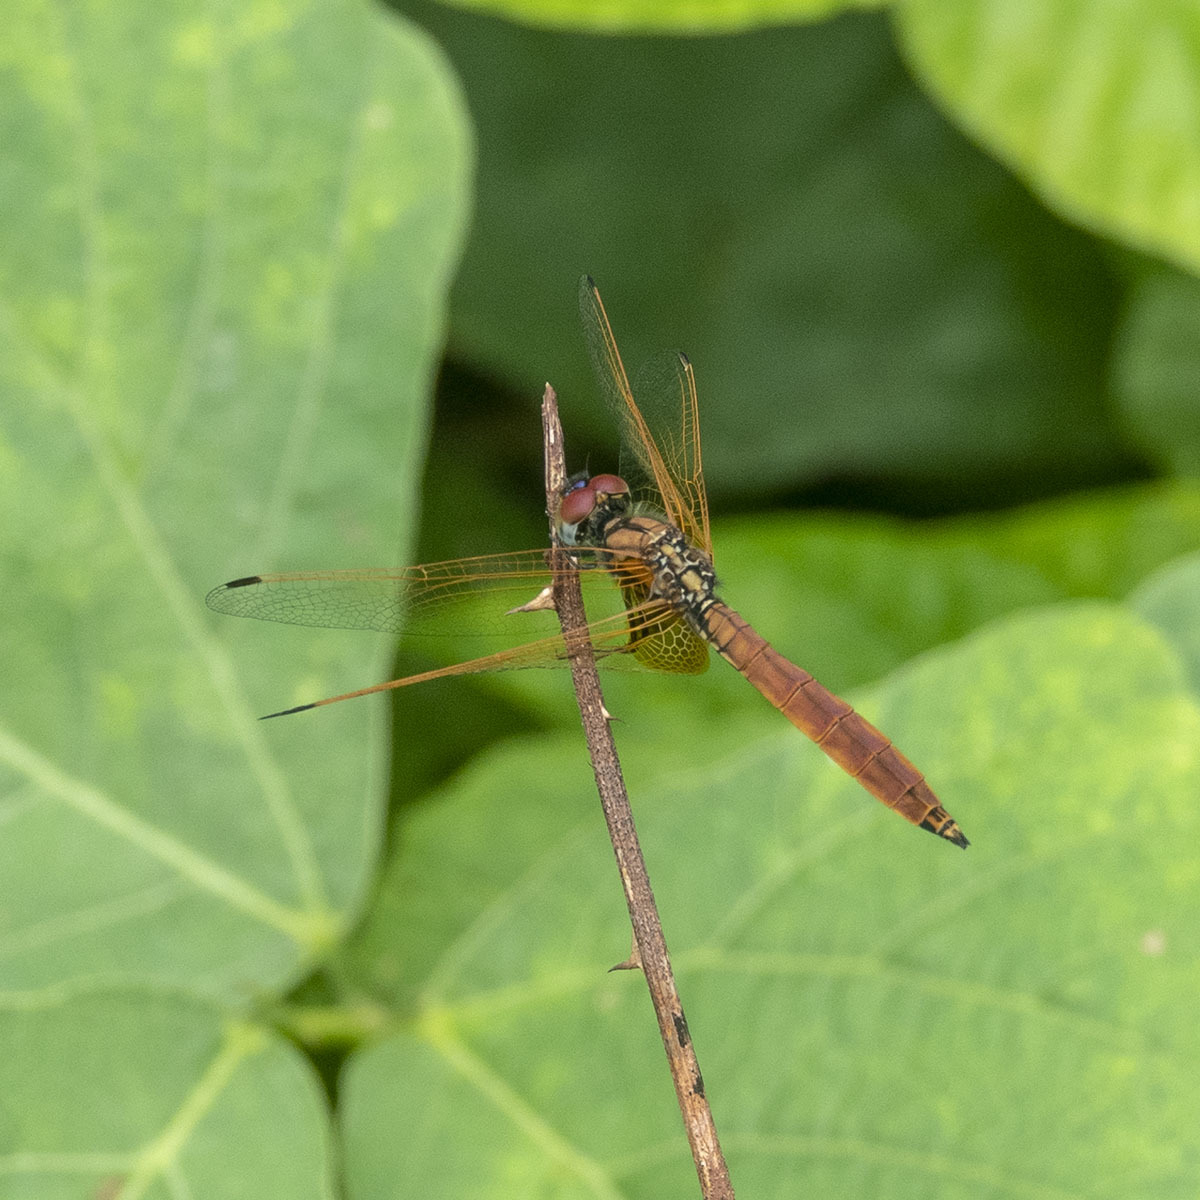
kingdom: Animalia
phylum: Arthropoda
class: Insecta
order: Odonata
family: Libellulidae
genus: Trithemis
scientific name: Trithemis aurora
